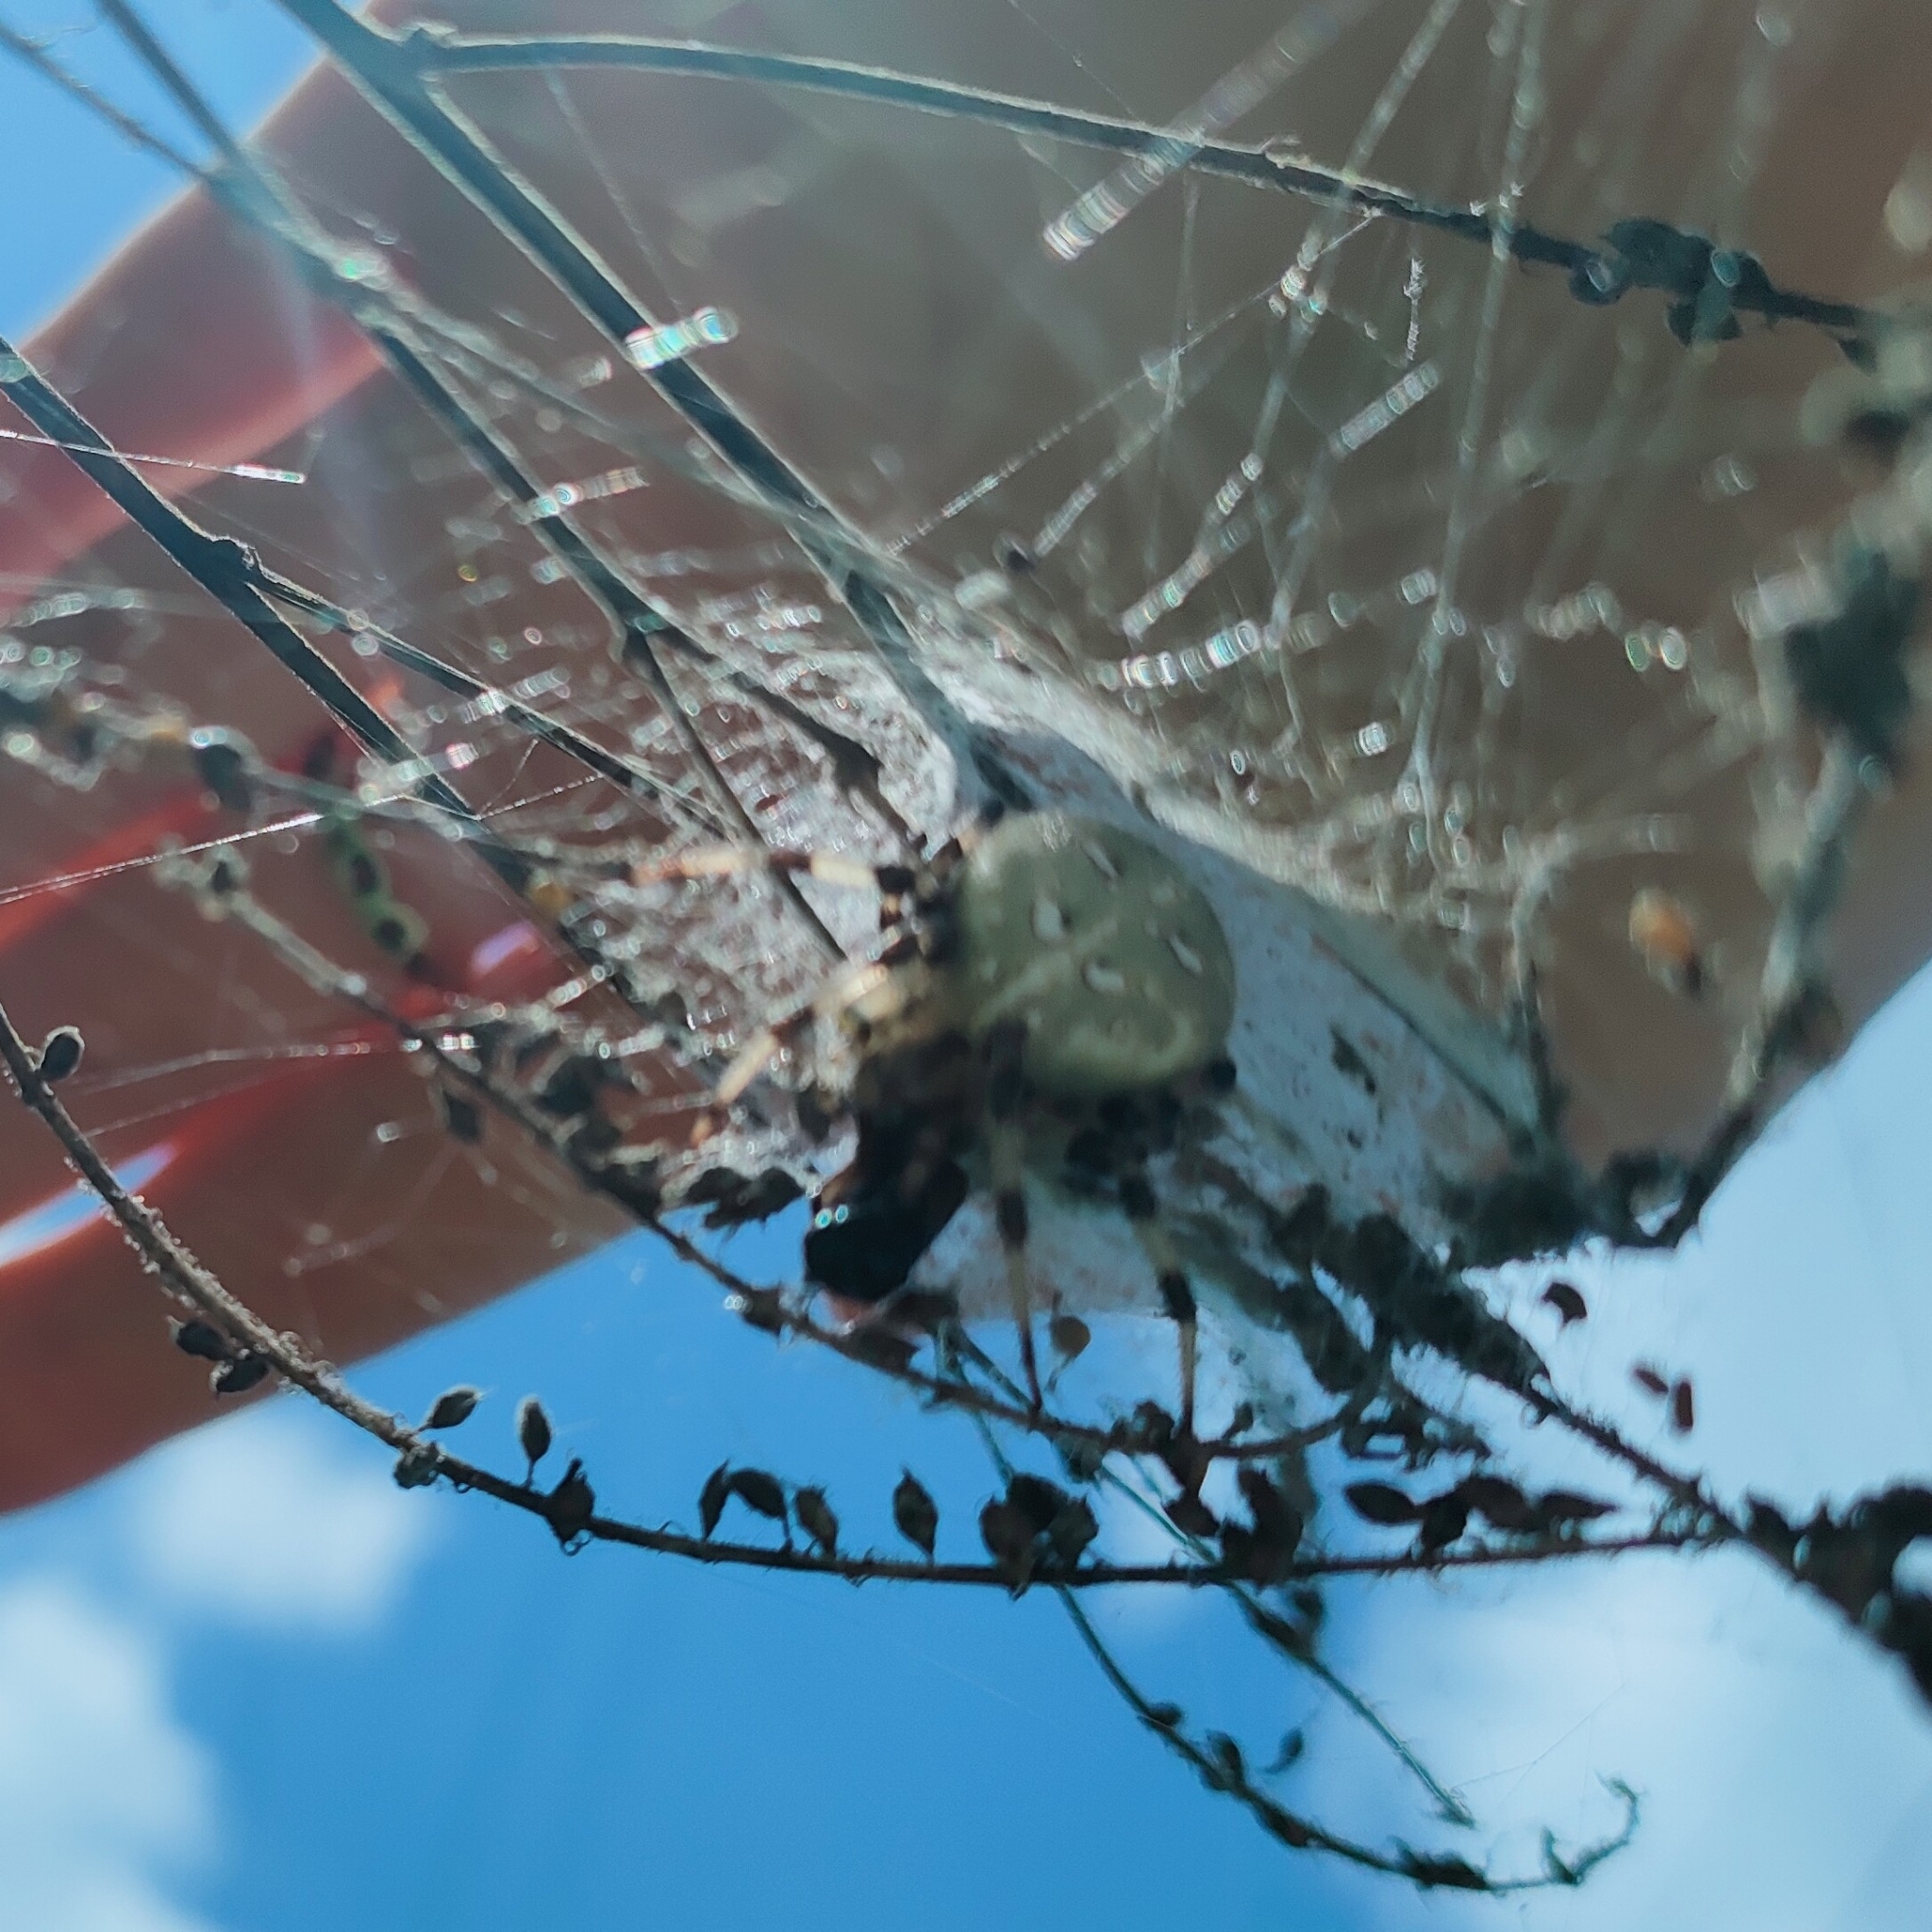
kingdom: Animalia
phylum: Arthropoda
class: Arachnida
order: Araneae
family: Araneidae
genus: Araneus
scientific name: Araneus quadratus
